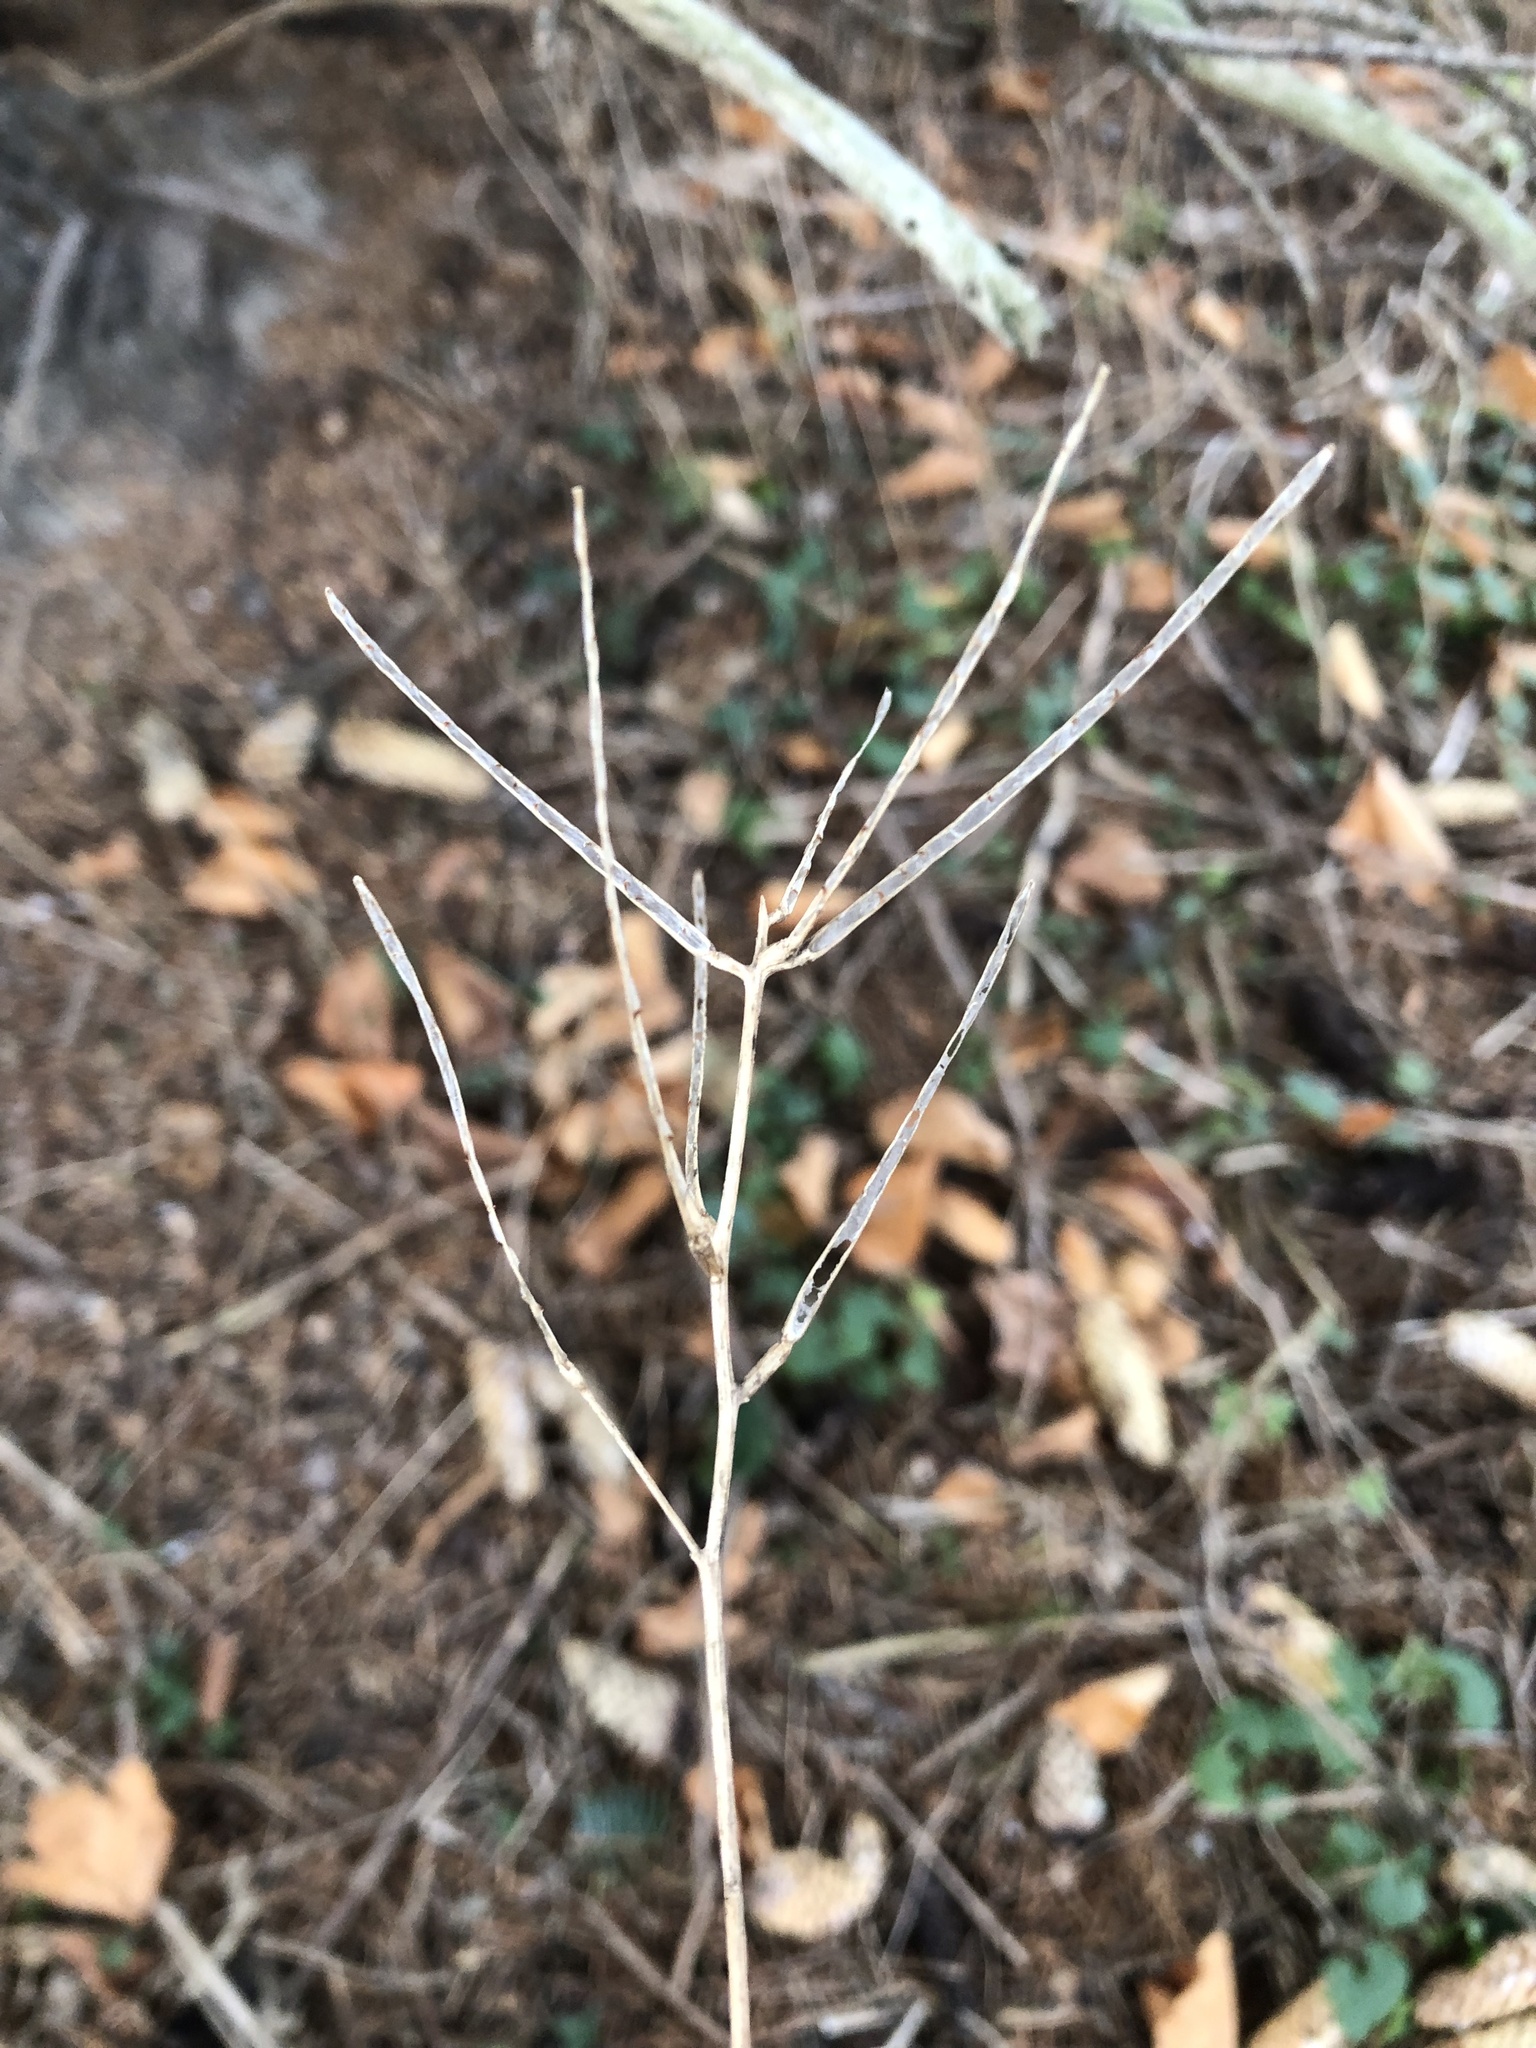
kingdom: Plantae
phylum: Tracheophyta
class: Magnoliopsida
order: Brassicales
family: Brassicaceae
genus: Alliaria
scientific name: Alliaria petiolata
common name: Garlic mustard
